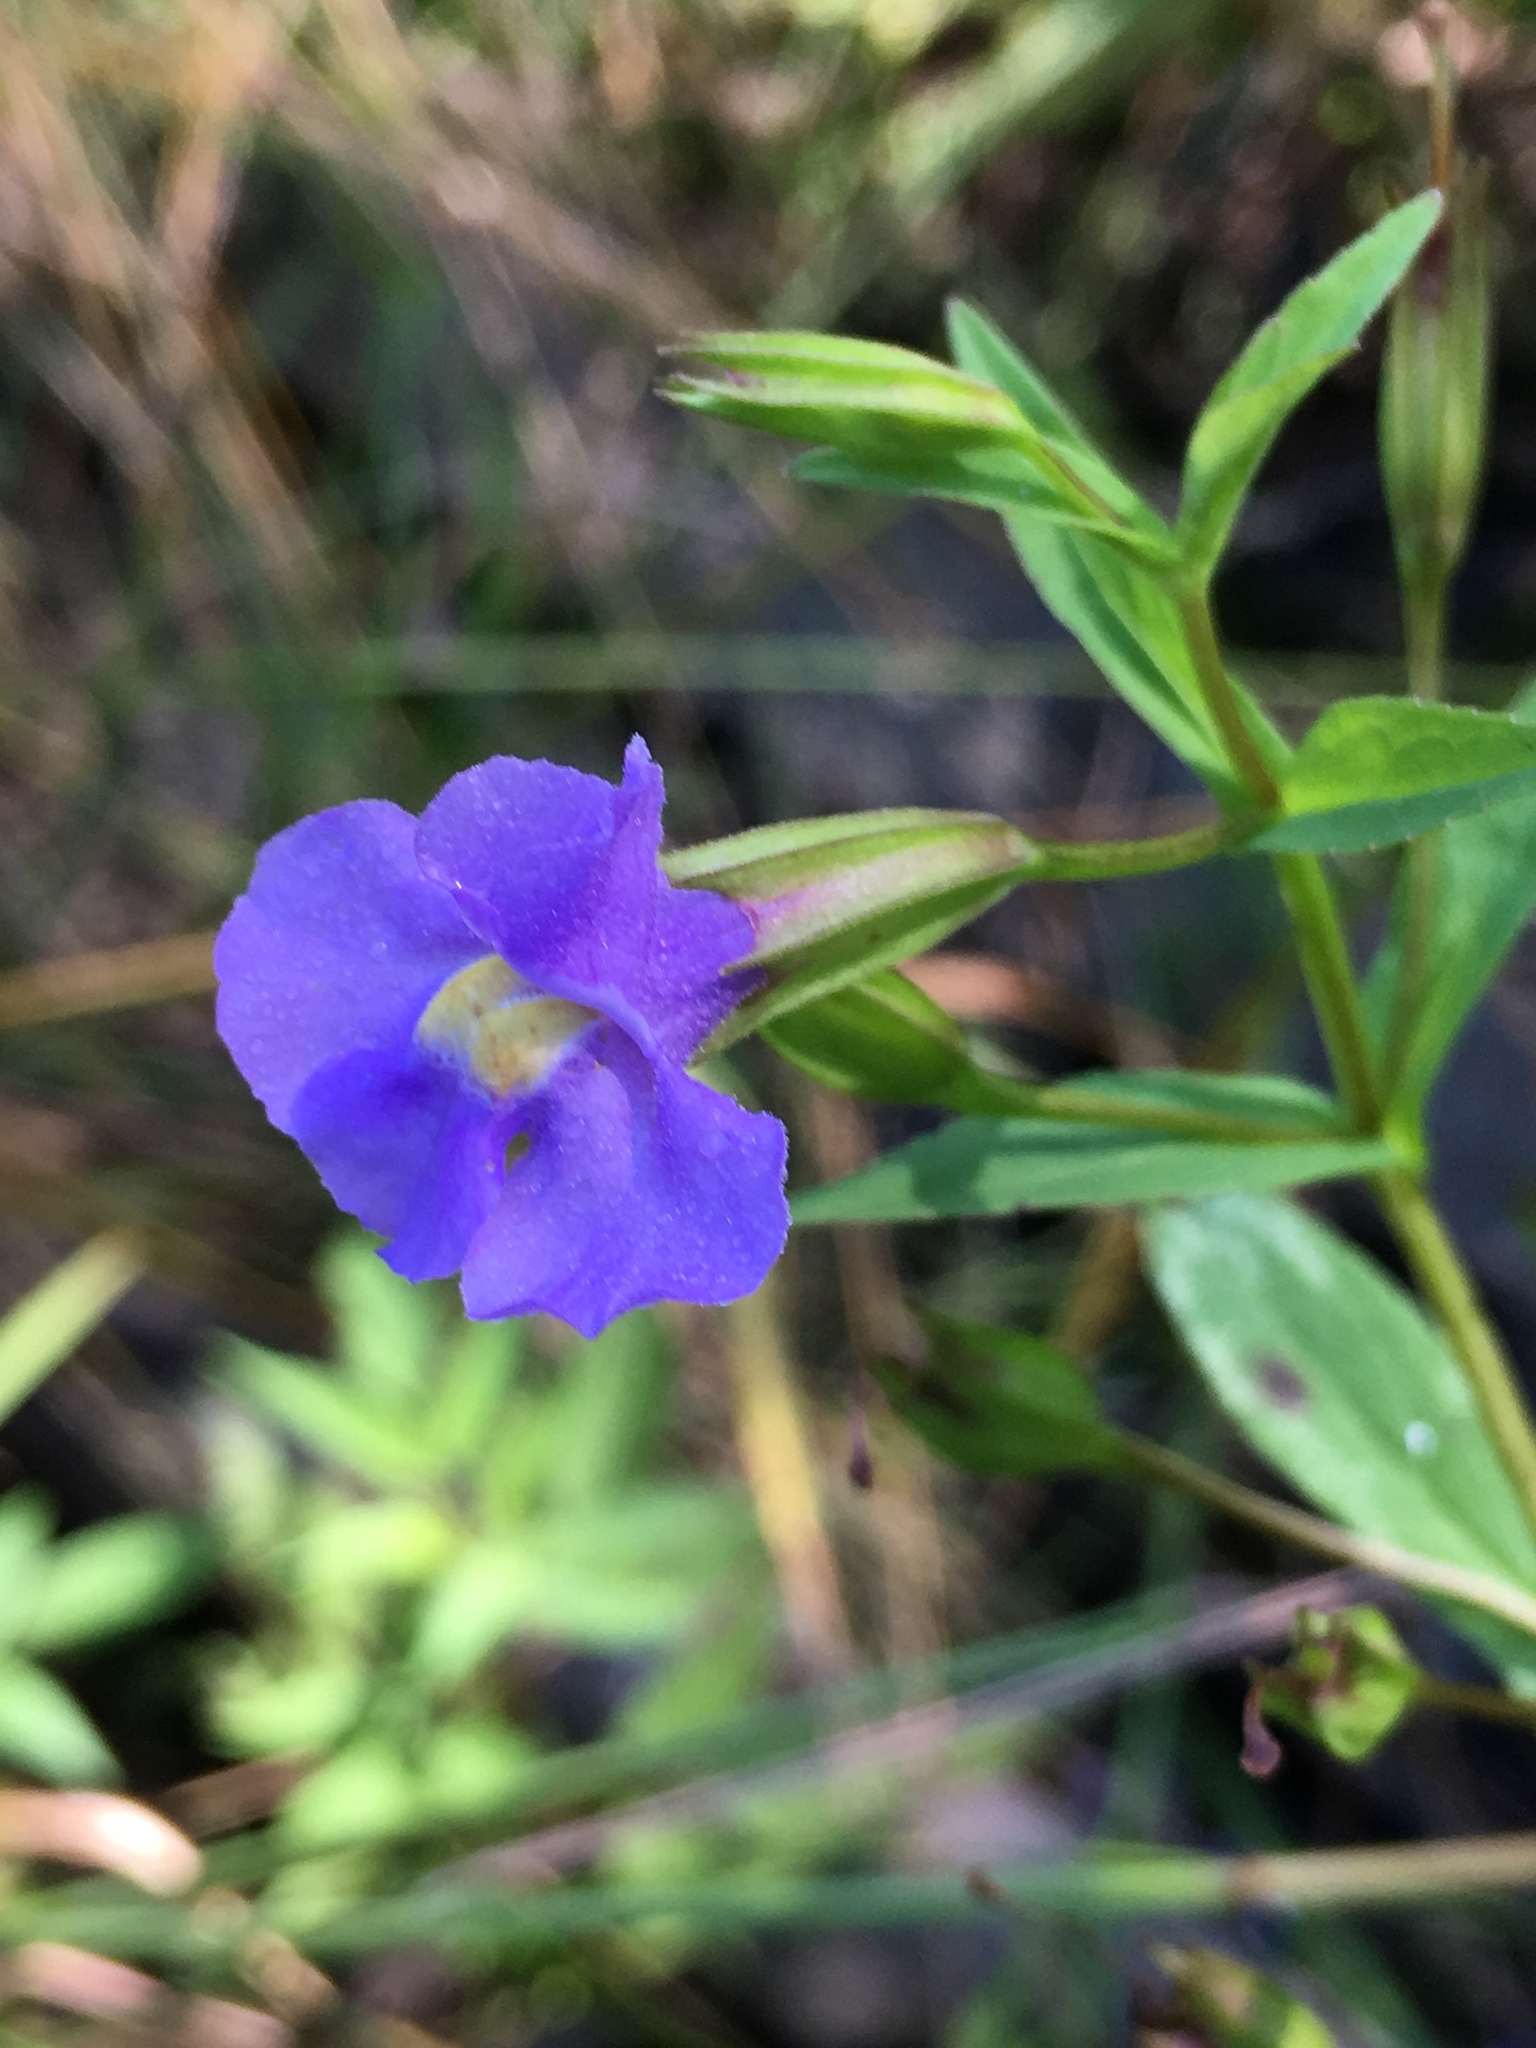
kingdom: Plantae
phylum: Tracheophyta
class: Magnoliopsida
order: Lamiales
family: Phrymaceae
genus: Mimulus
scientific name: Mimulus ringens
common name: Allegheny monkeyflower
